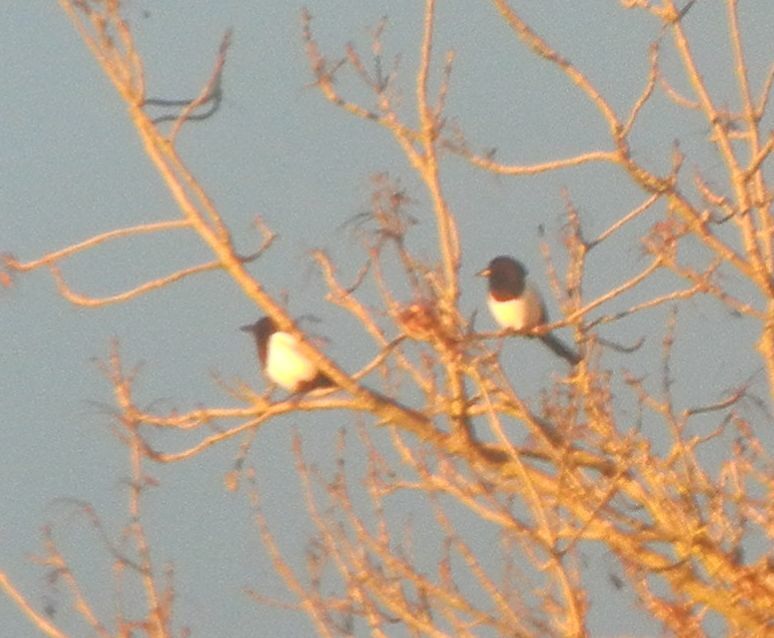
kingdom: Animalia
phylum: Chordata
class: Aves
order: Passeriformes
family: Corvidae
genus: Pica
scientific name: Pica pica
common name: Eurasian magpie
